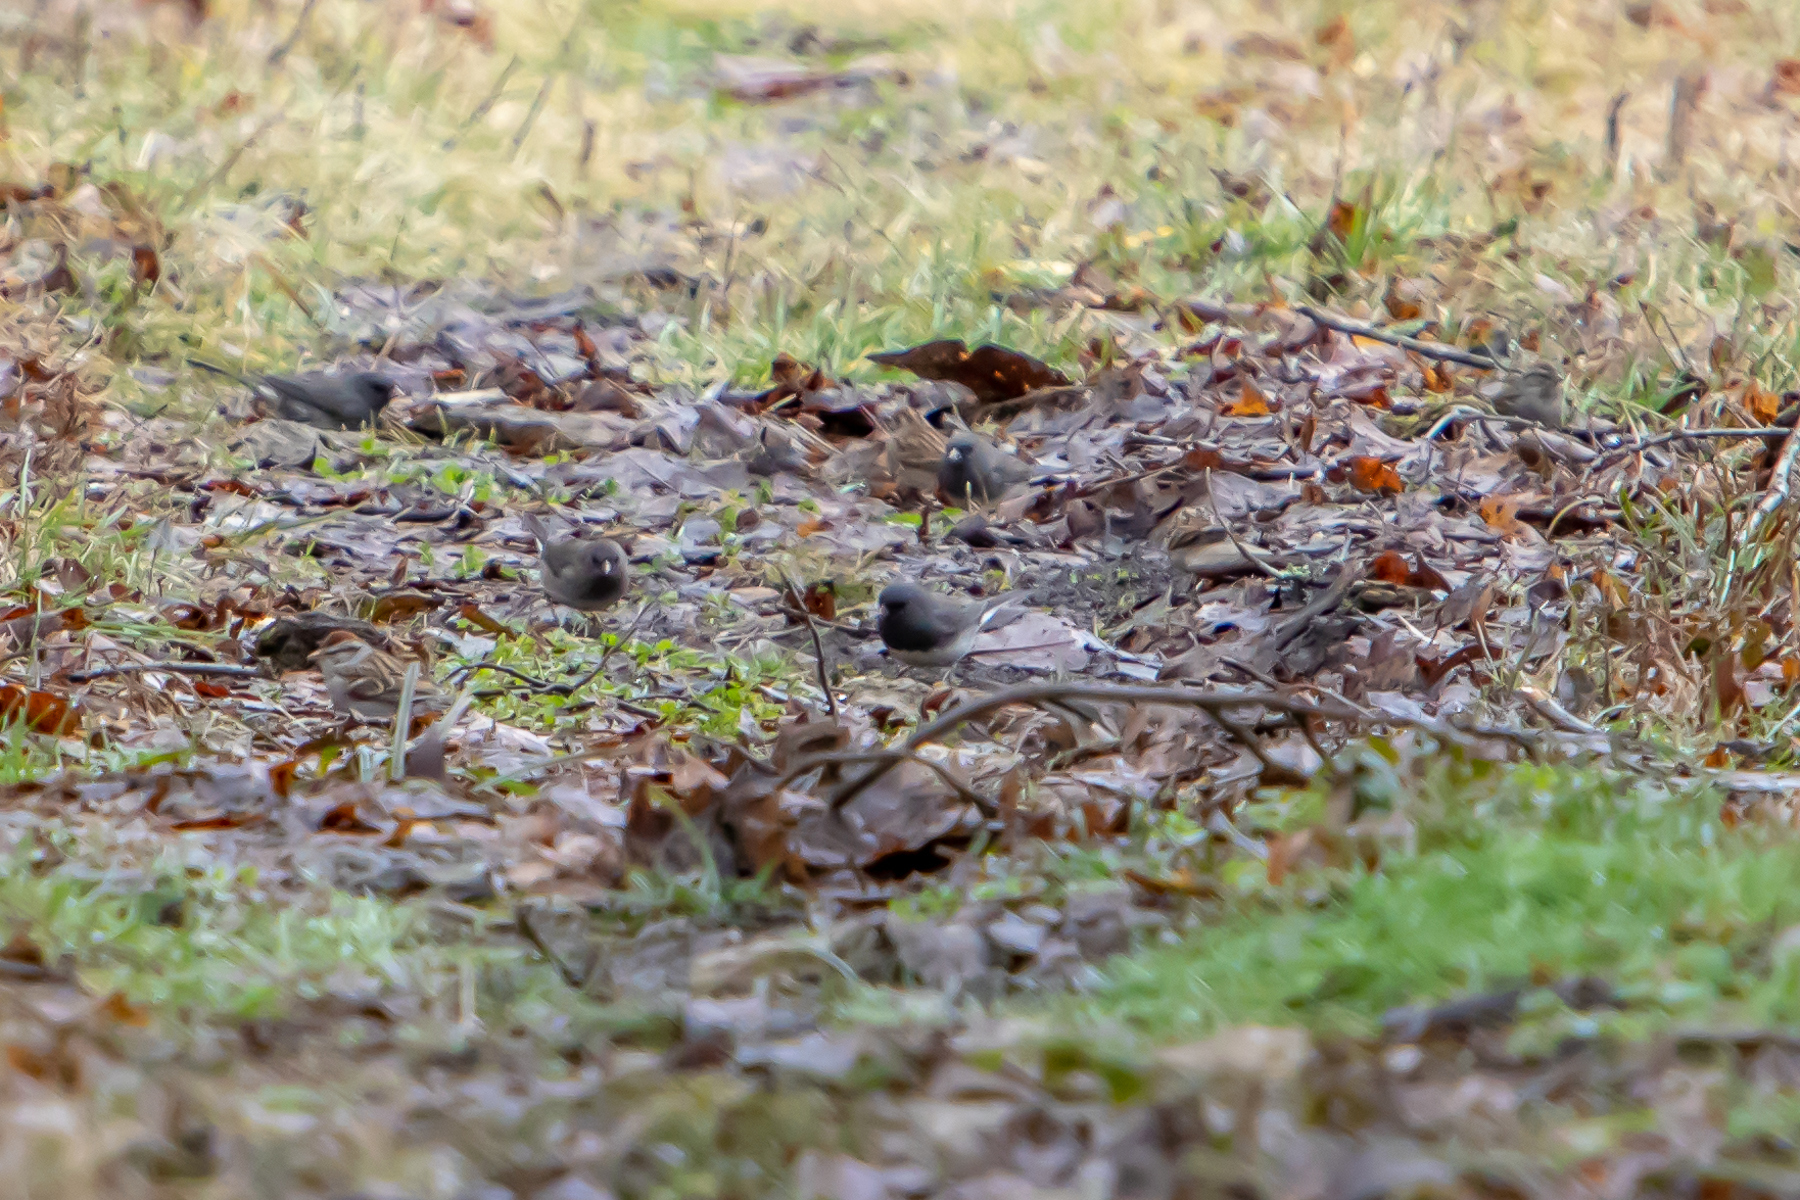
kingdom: Animalia
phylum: Chordata
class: Aves
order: Passeriformes
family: Passerellidae
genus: Junco
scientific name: Junco hyemalis
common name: Dark-eyed junco
